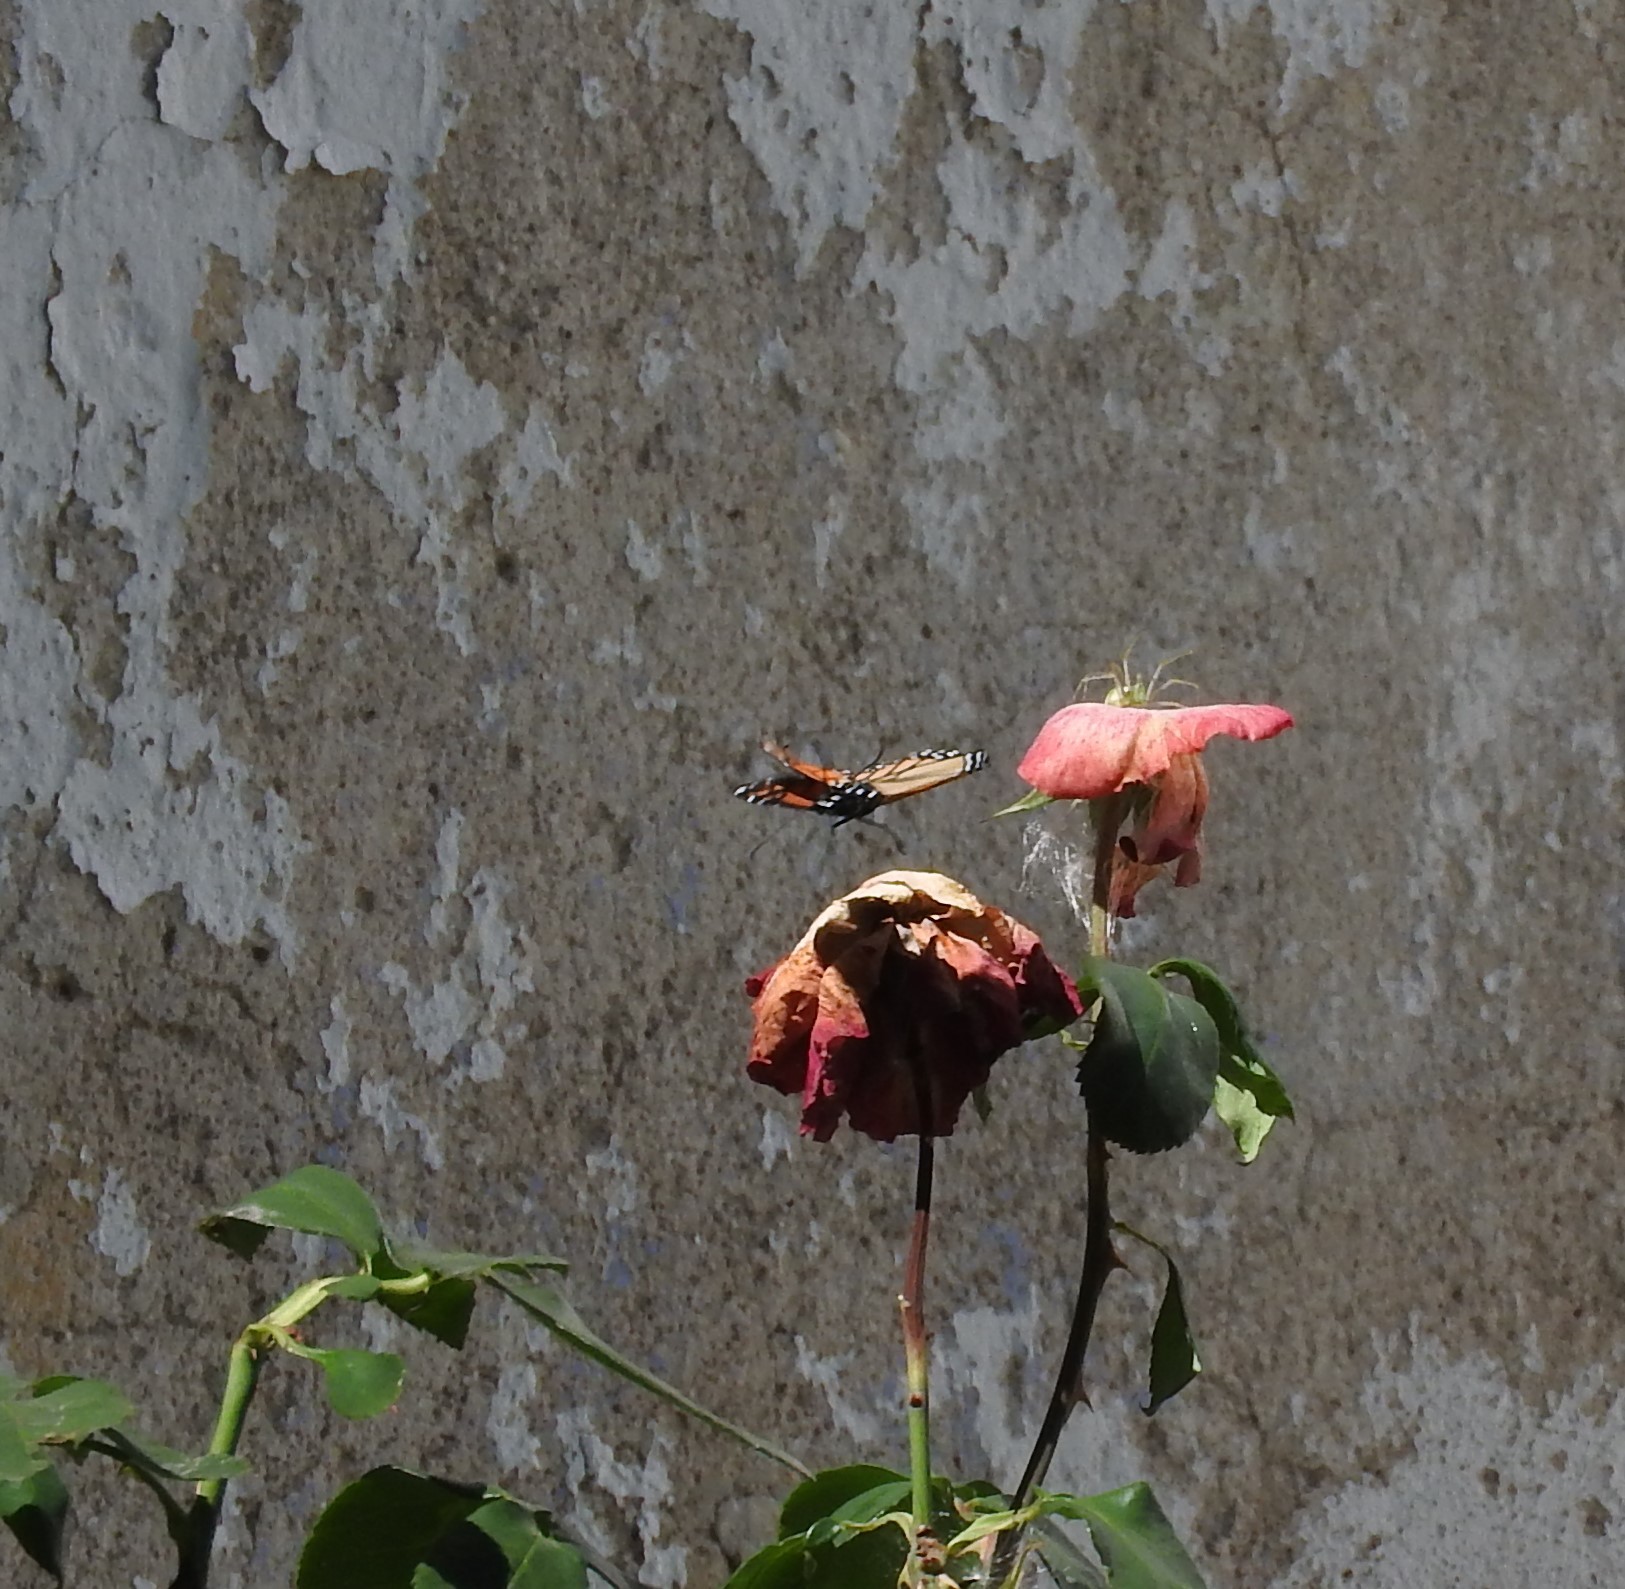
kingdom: Animalia
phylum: Arthropoda
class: Insecta
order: Lepidoptera
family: Nymphalidae
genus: Danaus
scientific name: Danaus plexippus
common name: Monarch
